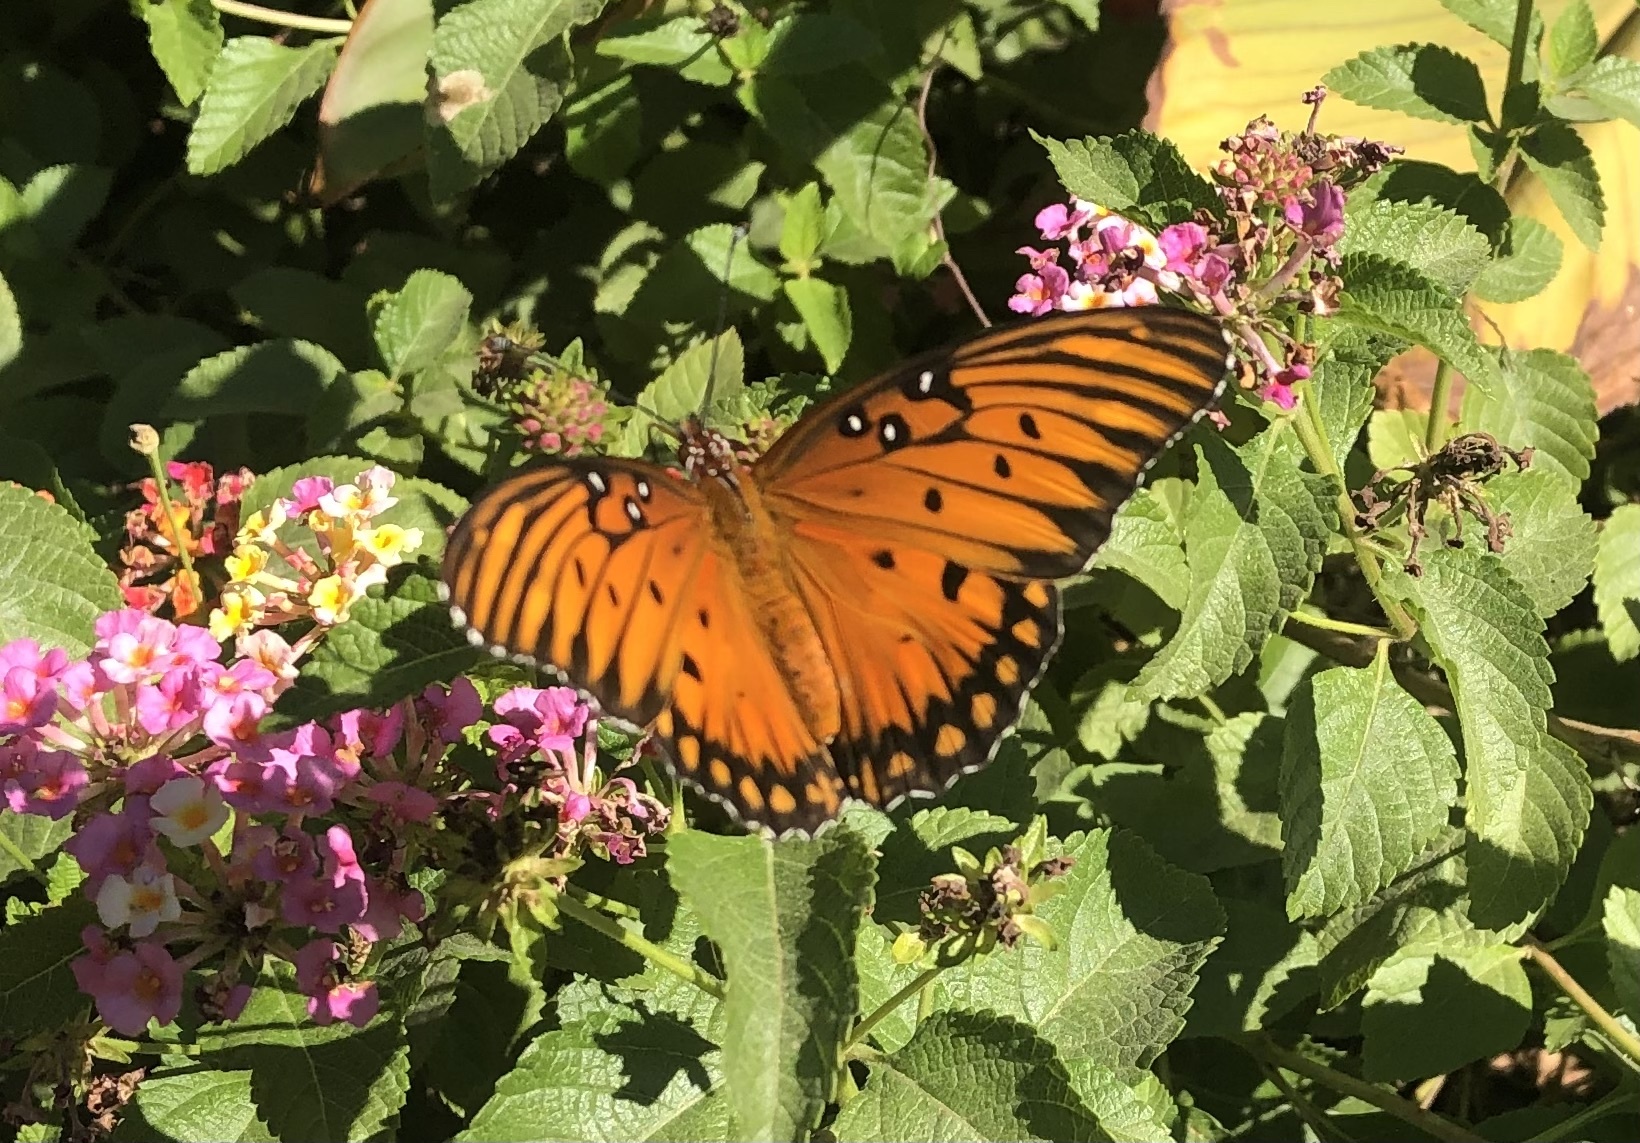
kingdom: Animalia
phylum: Arthropoda
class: Insecta
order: Lepidoptera
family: Nymphalidae
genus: Dione
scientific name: Dione vanillae
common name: Gulf fritillary
